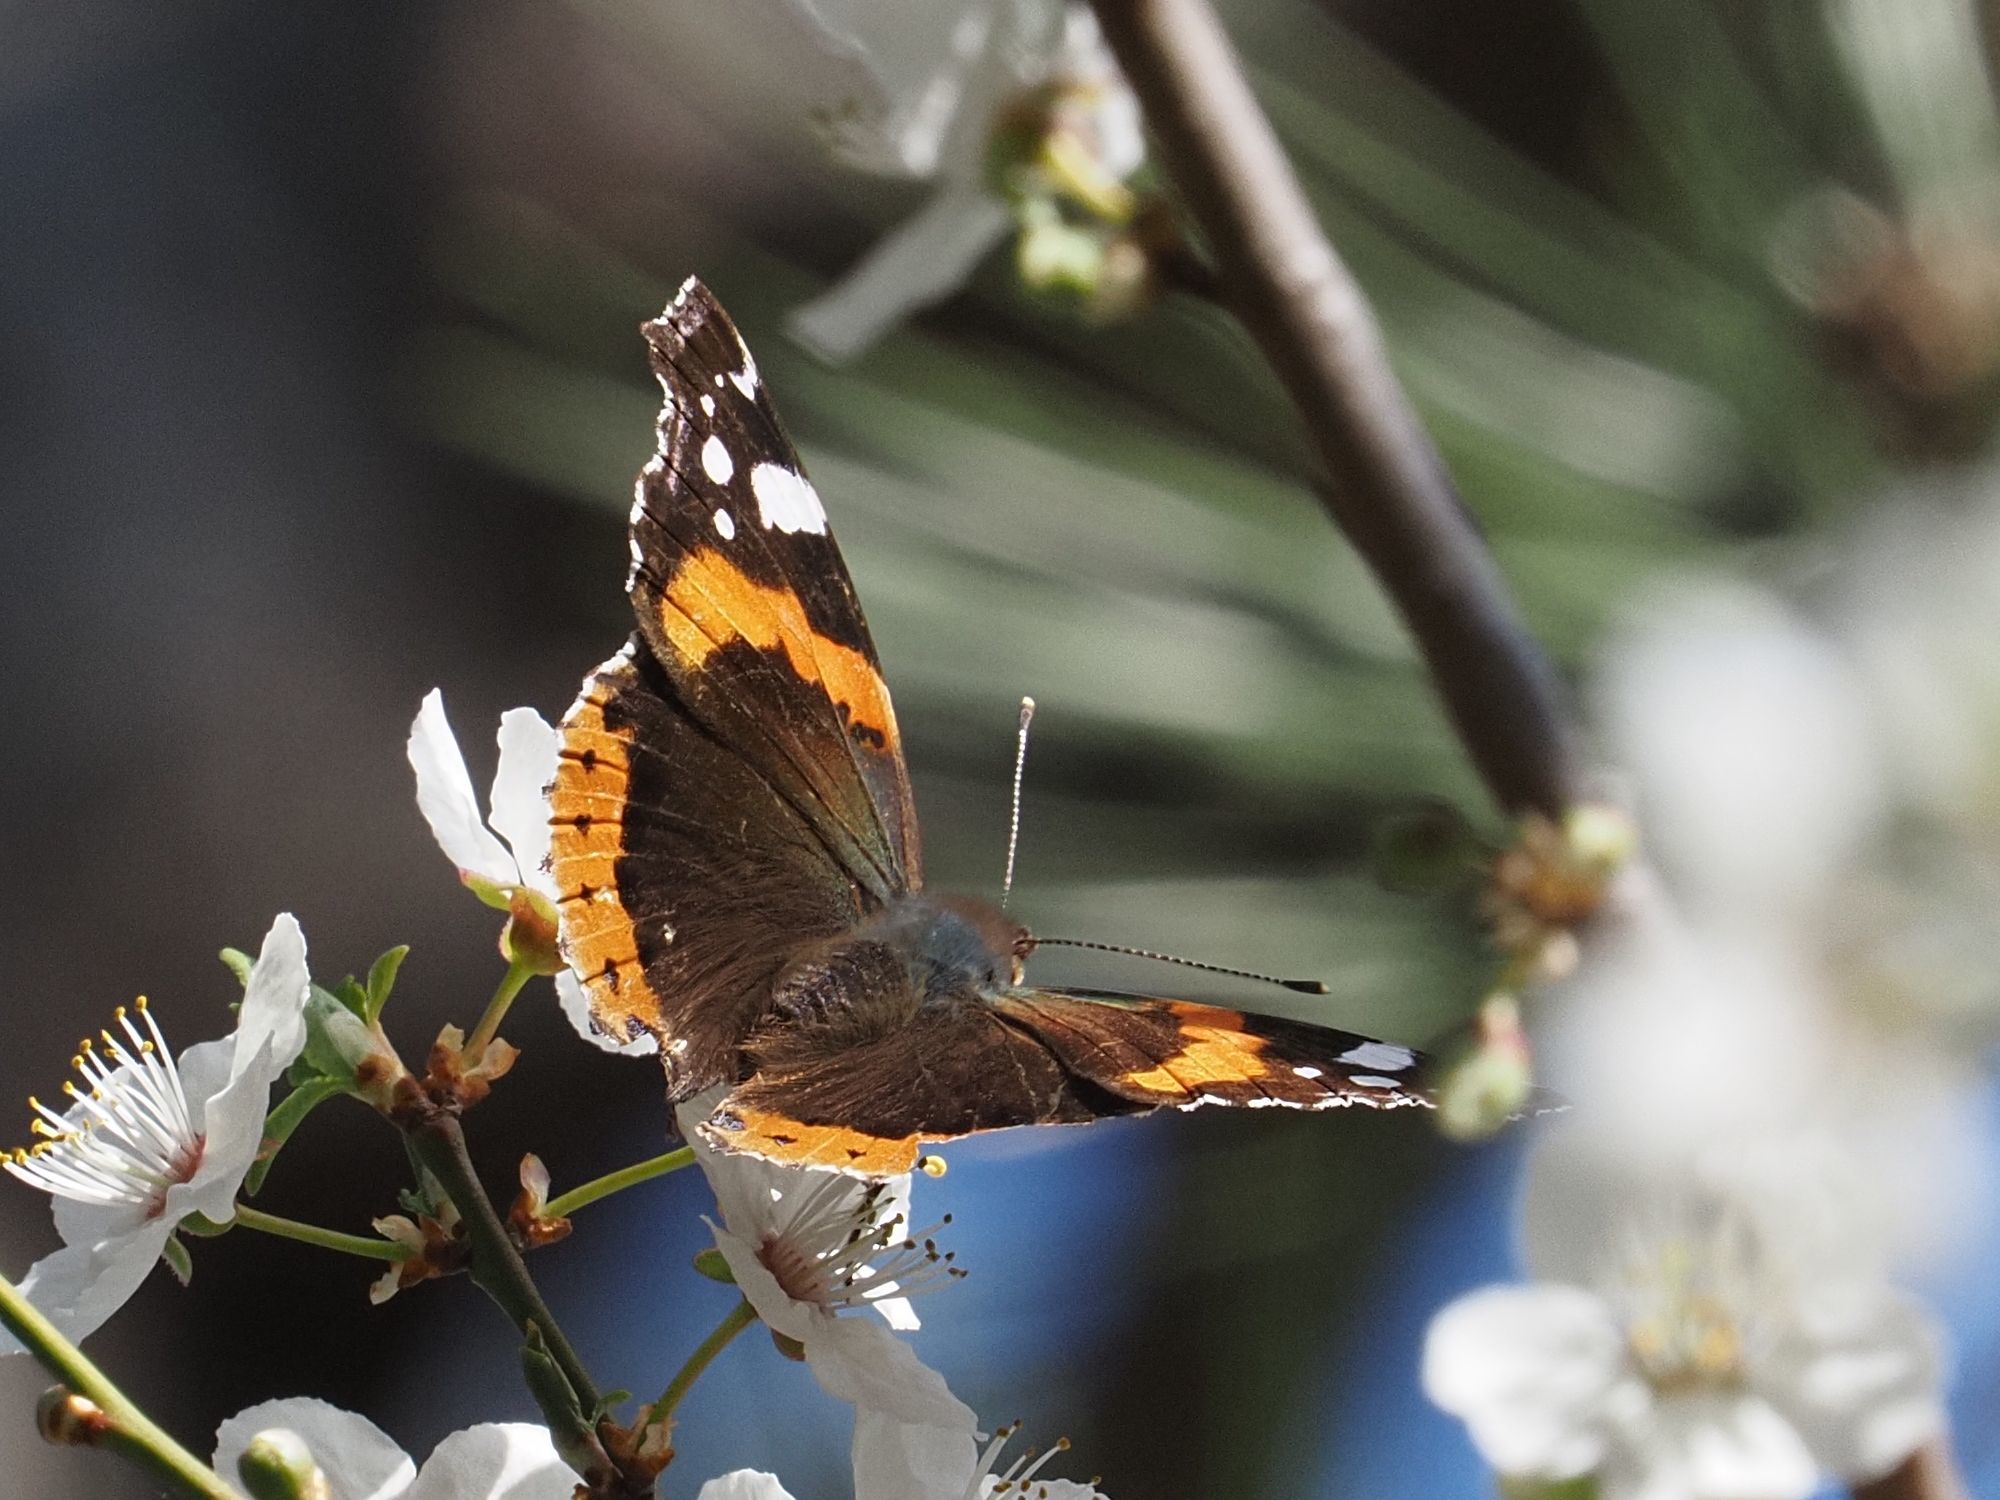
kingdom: Animalia
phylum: Arthropoda
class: Insecta
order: Lepidoptera
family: Nymphalidae
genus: Vanessa
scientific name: Vanessa atalanta
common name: Red admiral
